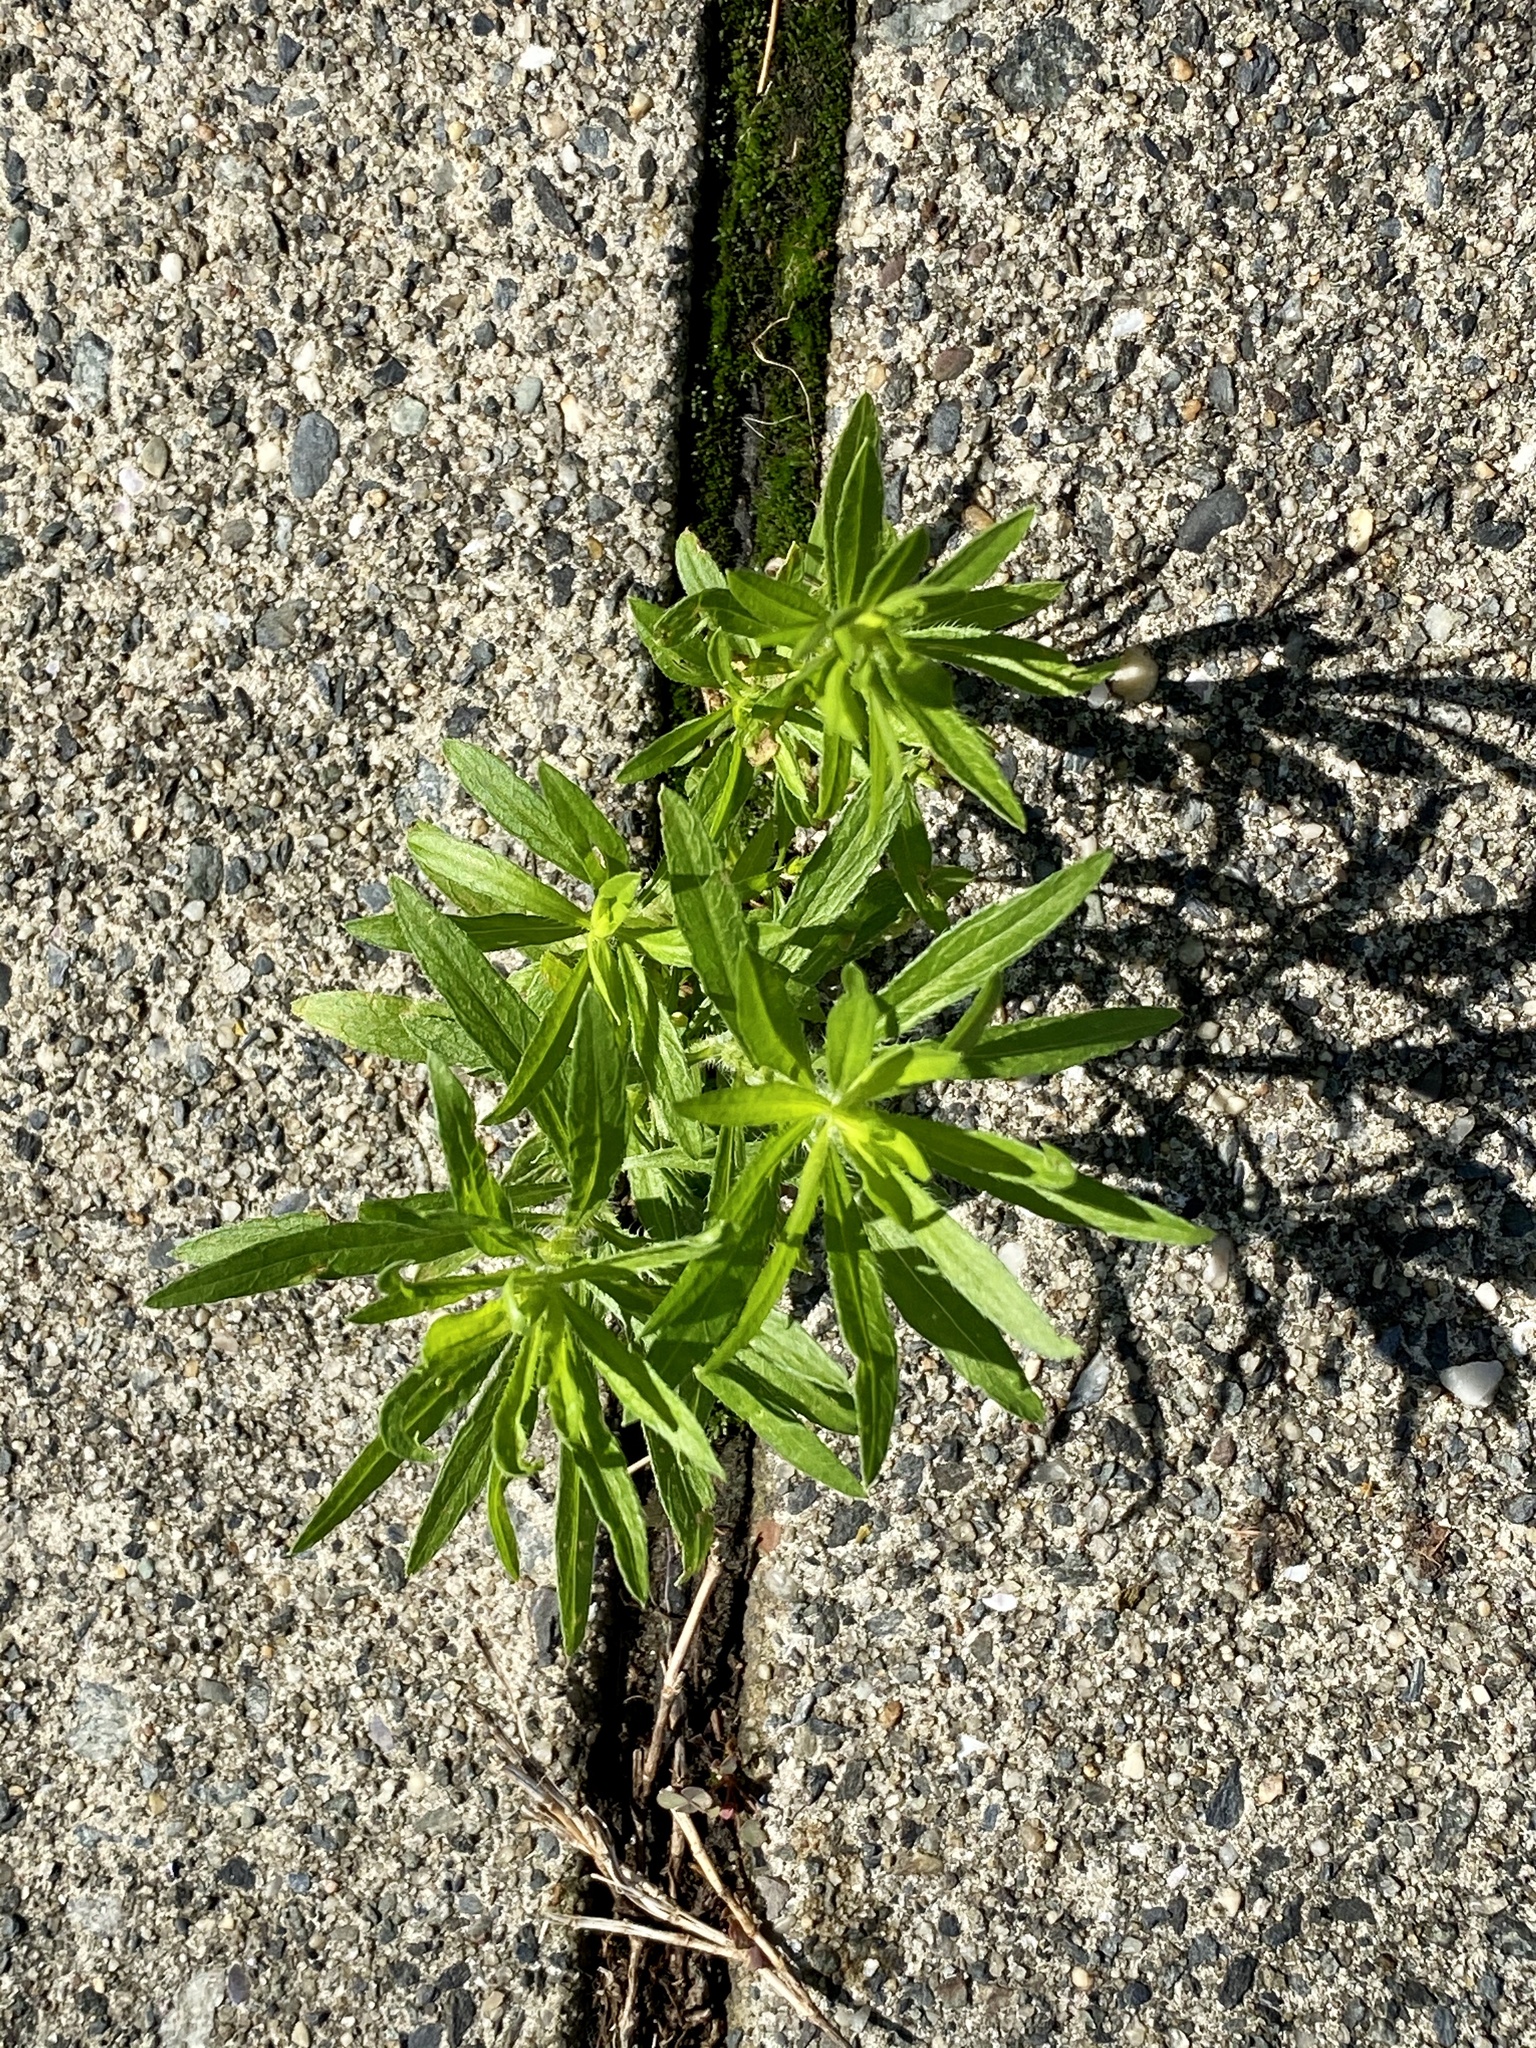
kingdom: Plantae
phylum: Tracheophyta
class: Magnoliopsida
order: Asterales
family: Asteraceae
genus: Erigeron
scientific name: Erigeron canadensis
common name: Canadian fleabane
